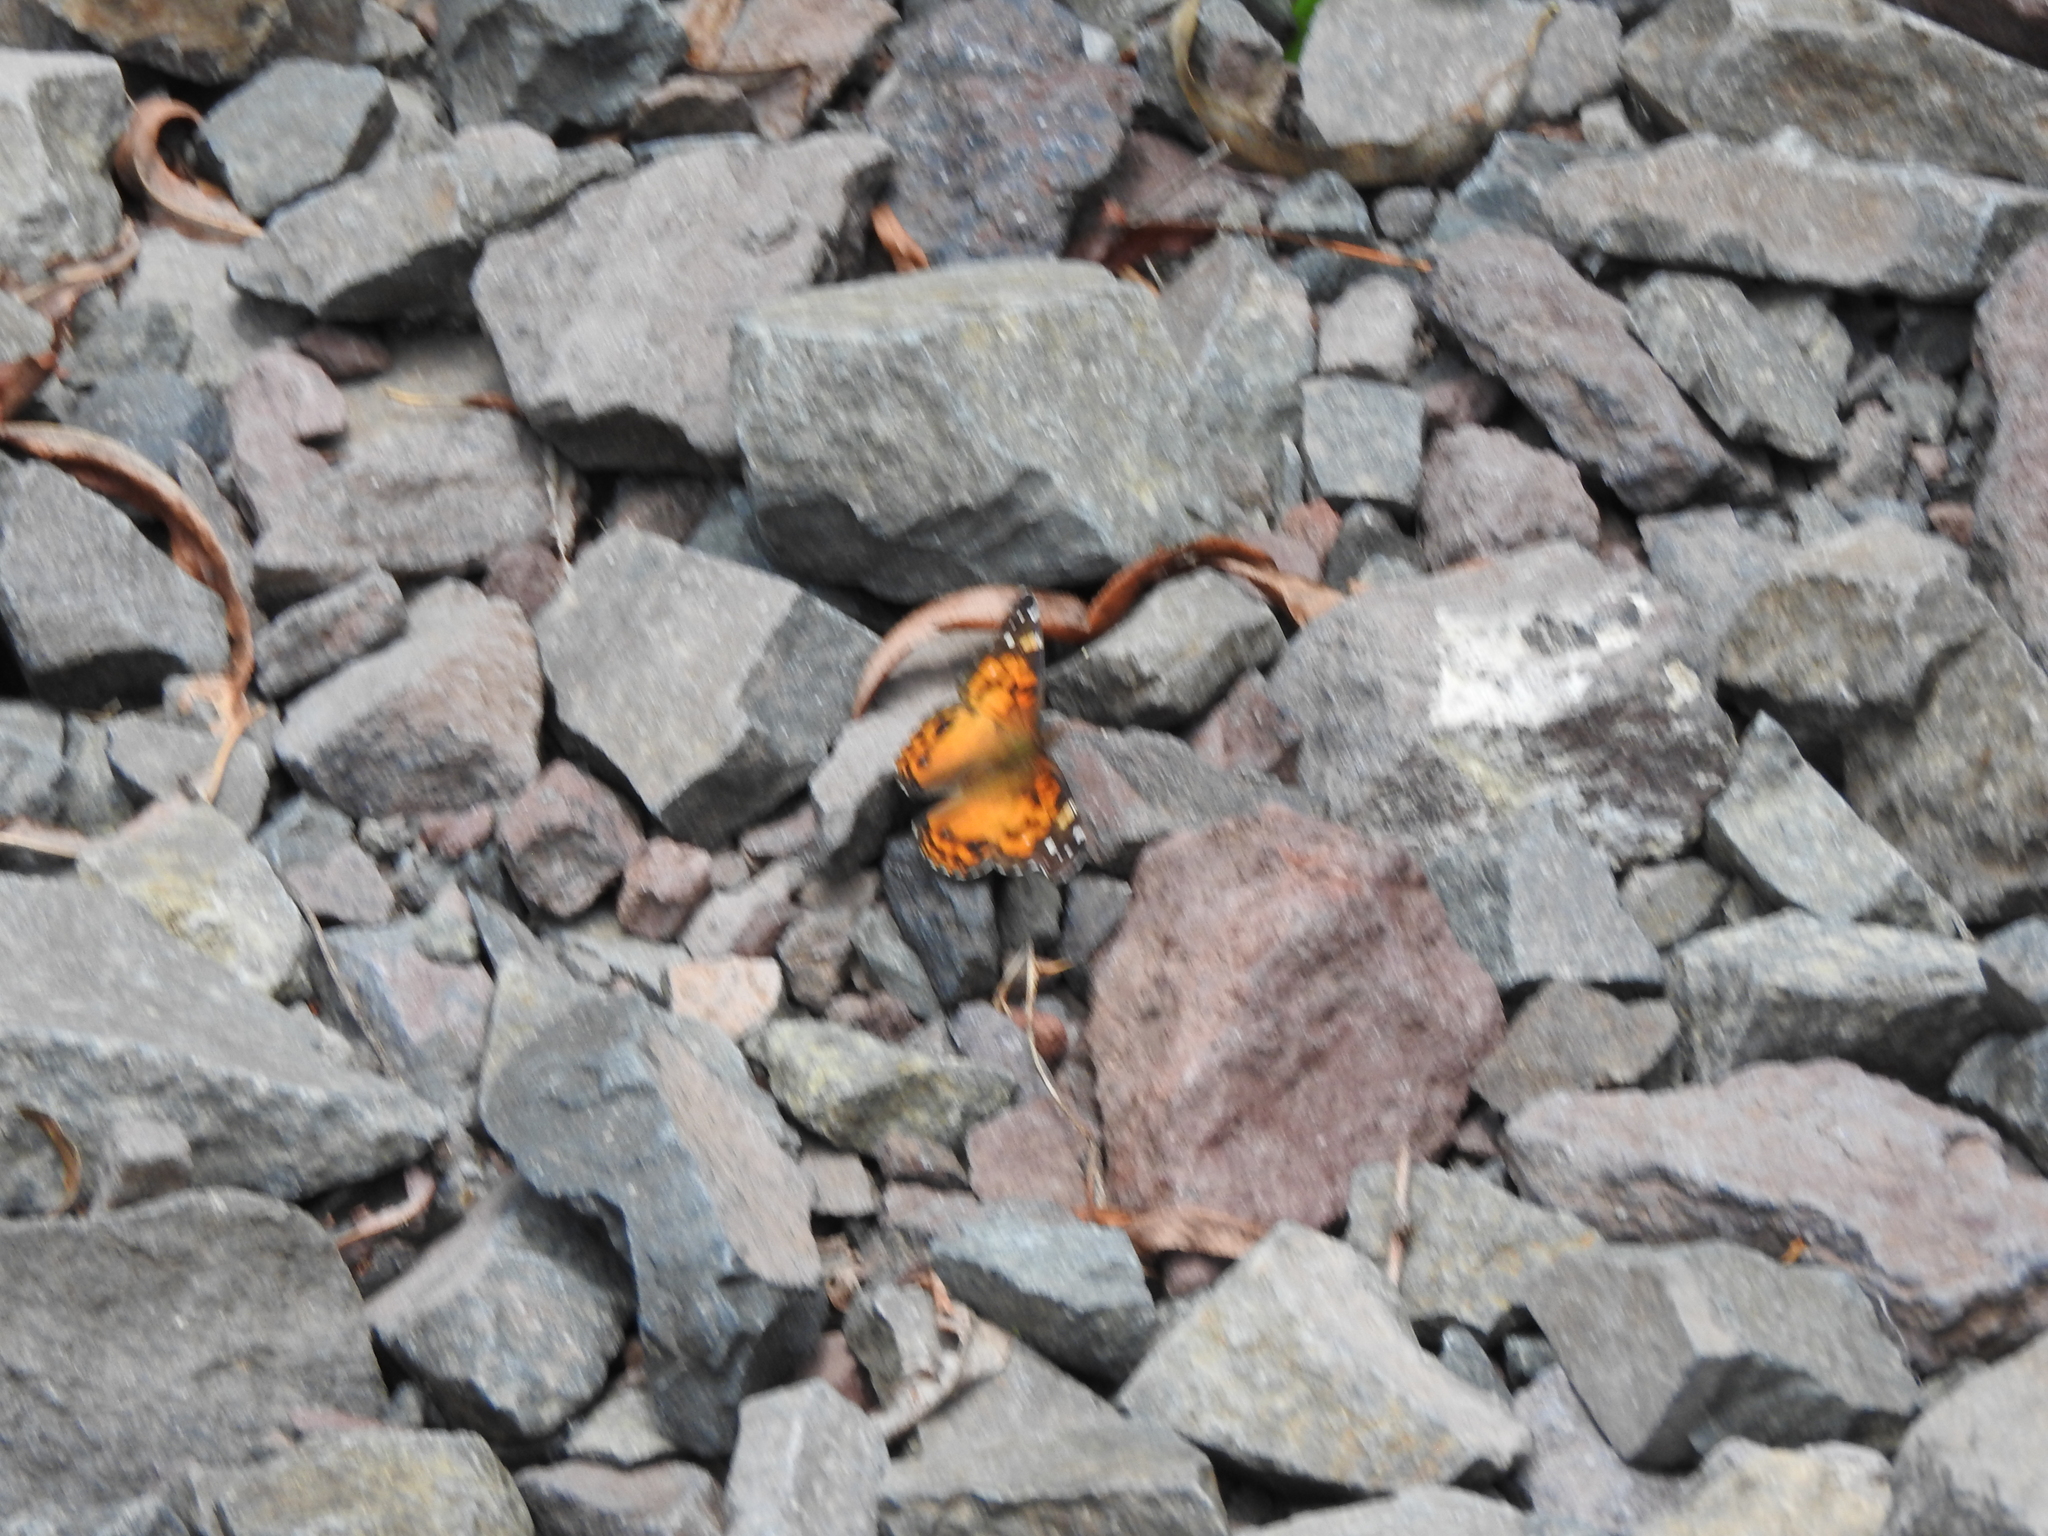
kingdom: Animalia
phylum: Arthropoda
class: Insecta
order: Lepidoptera
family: Nymphalidae
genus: Vanessa
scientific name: Vanessa virginiensis
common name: American lady
